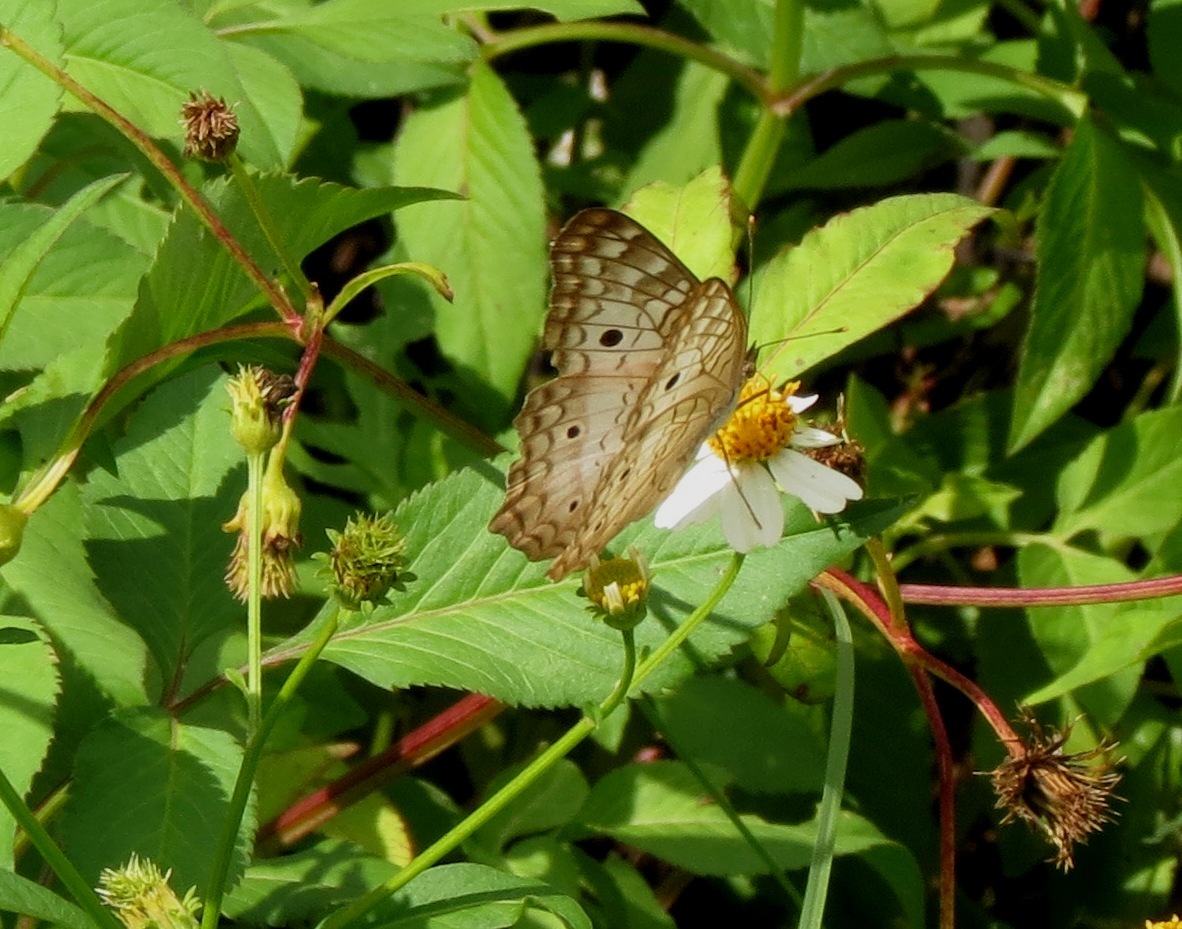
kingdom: Animalia
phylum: Arthropoda
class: Insecta
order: Lepidoptera
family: Nymphalidae
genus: Anartia
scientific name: Anartia jatrophae
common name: White peacock
